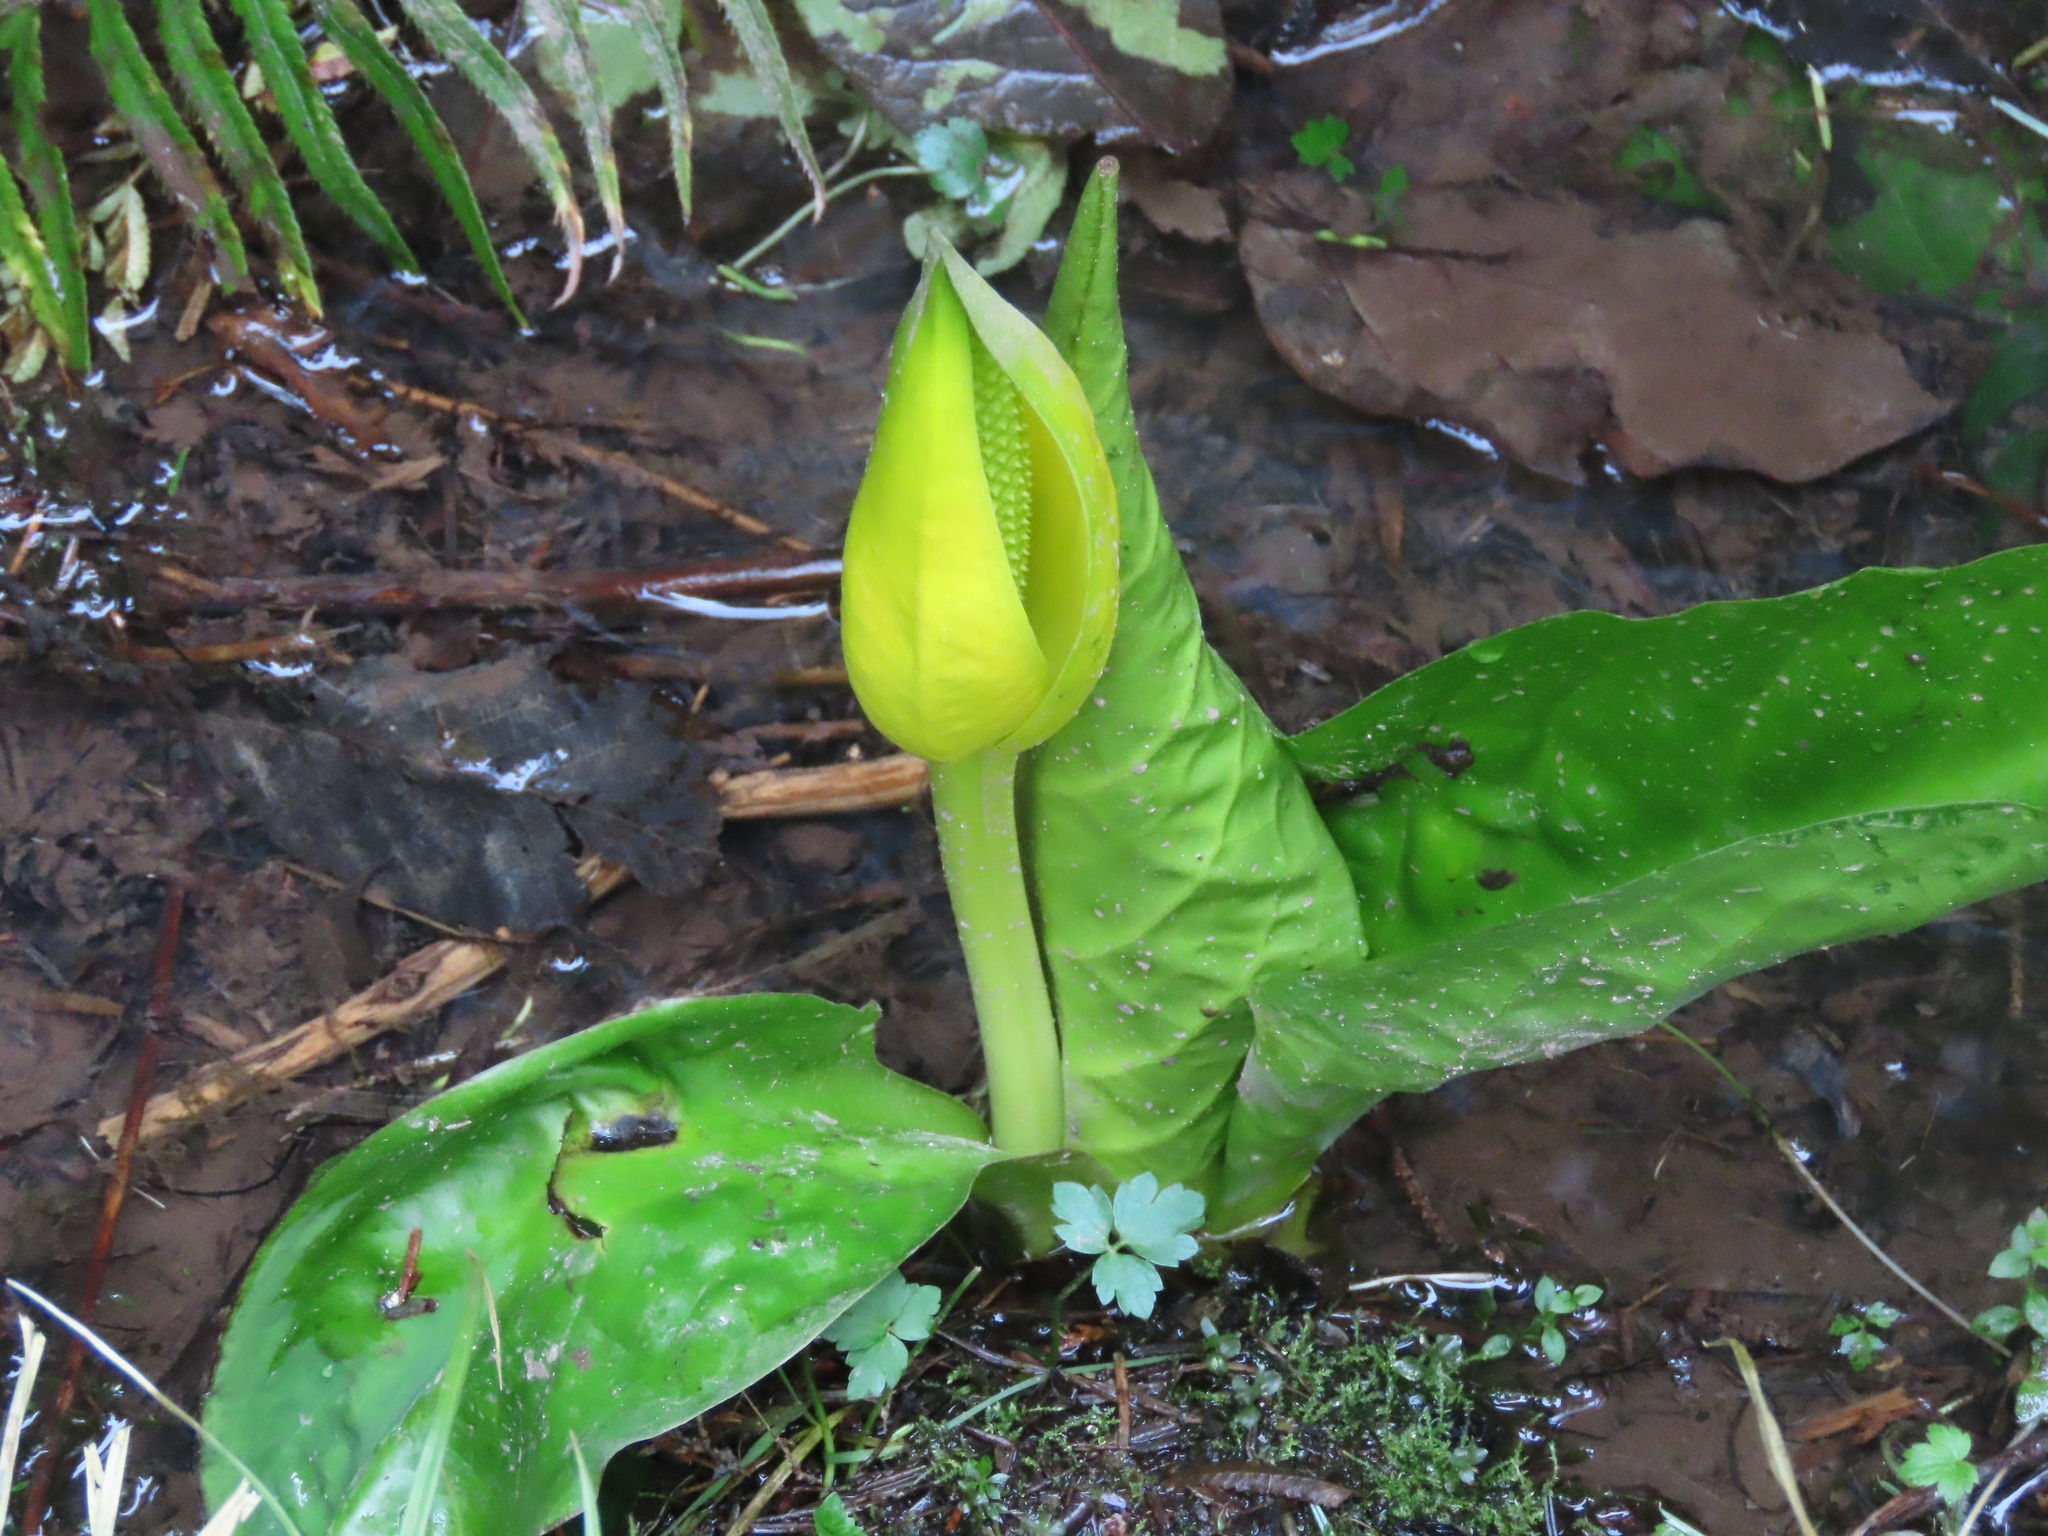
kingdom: Plantae
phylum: Tracheophyta
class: Liliopsida
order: Alismatales
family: Araceae
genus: Lysichiton
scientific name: Lysichiton americanus
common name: American skunk cabbage
